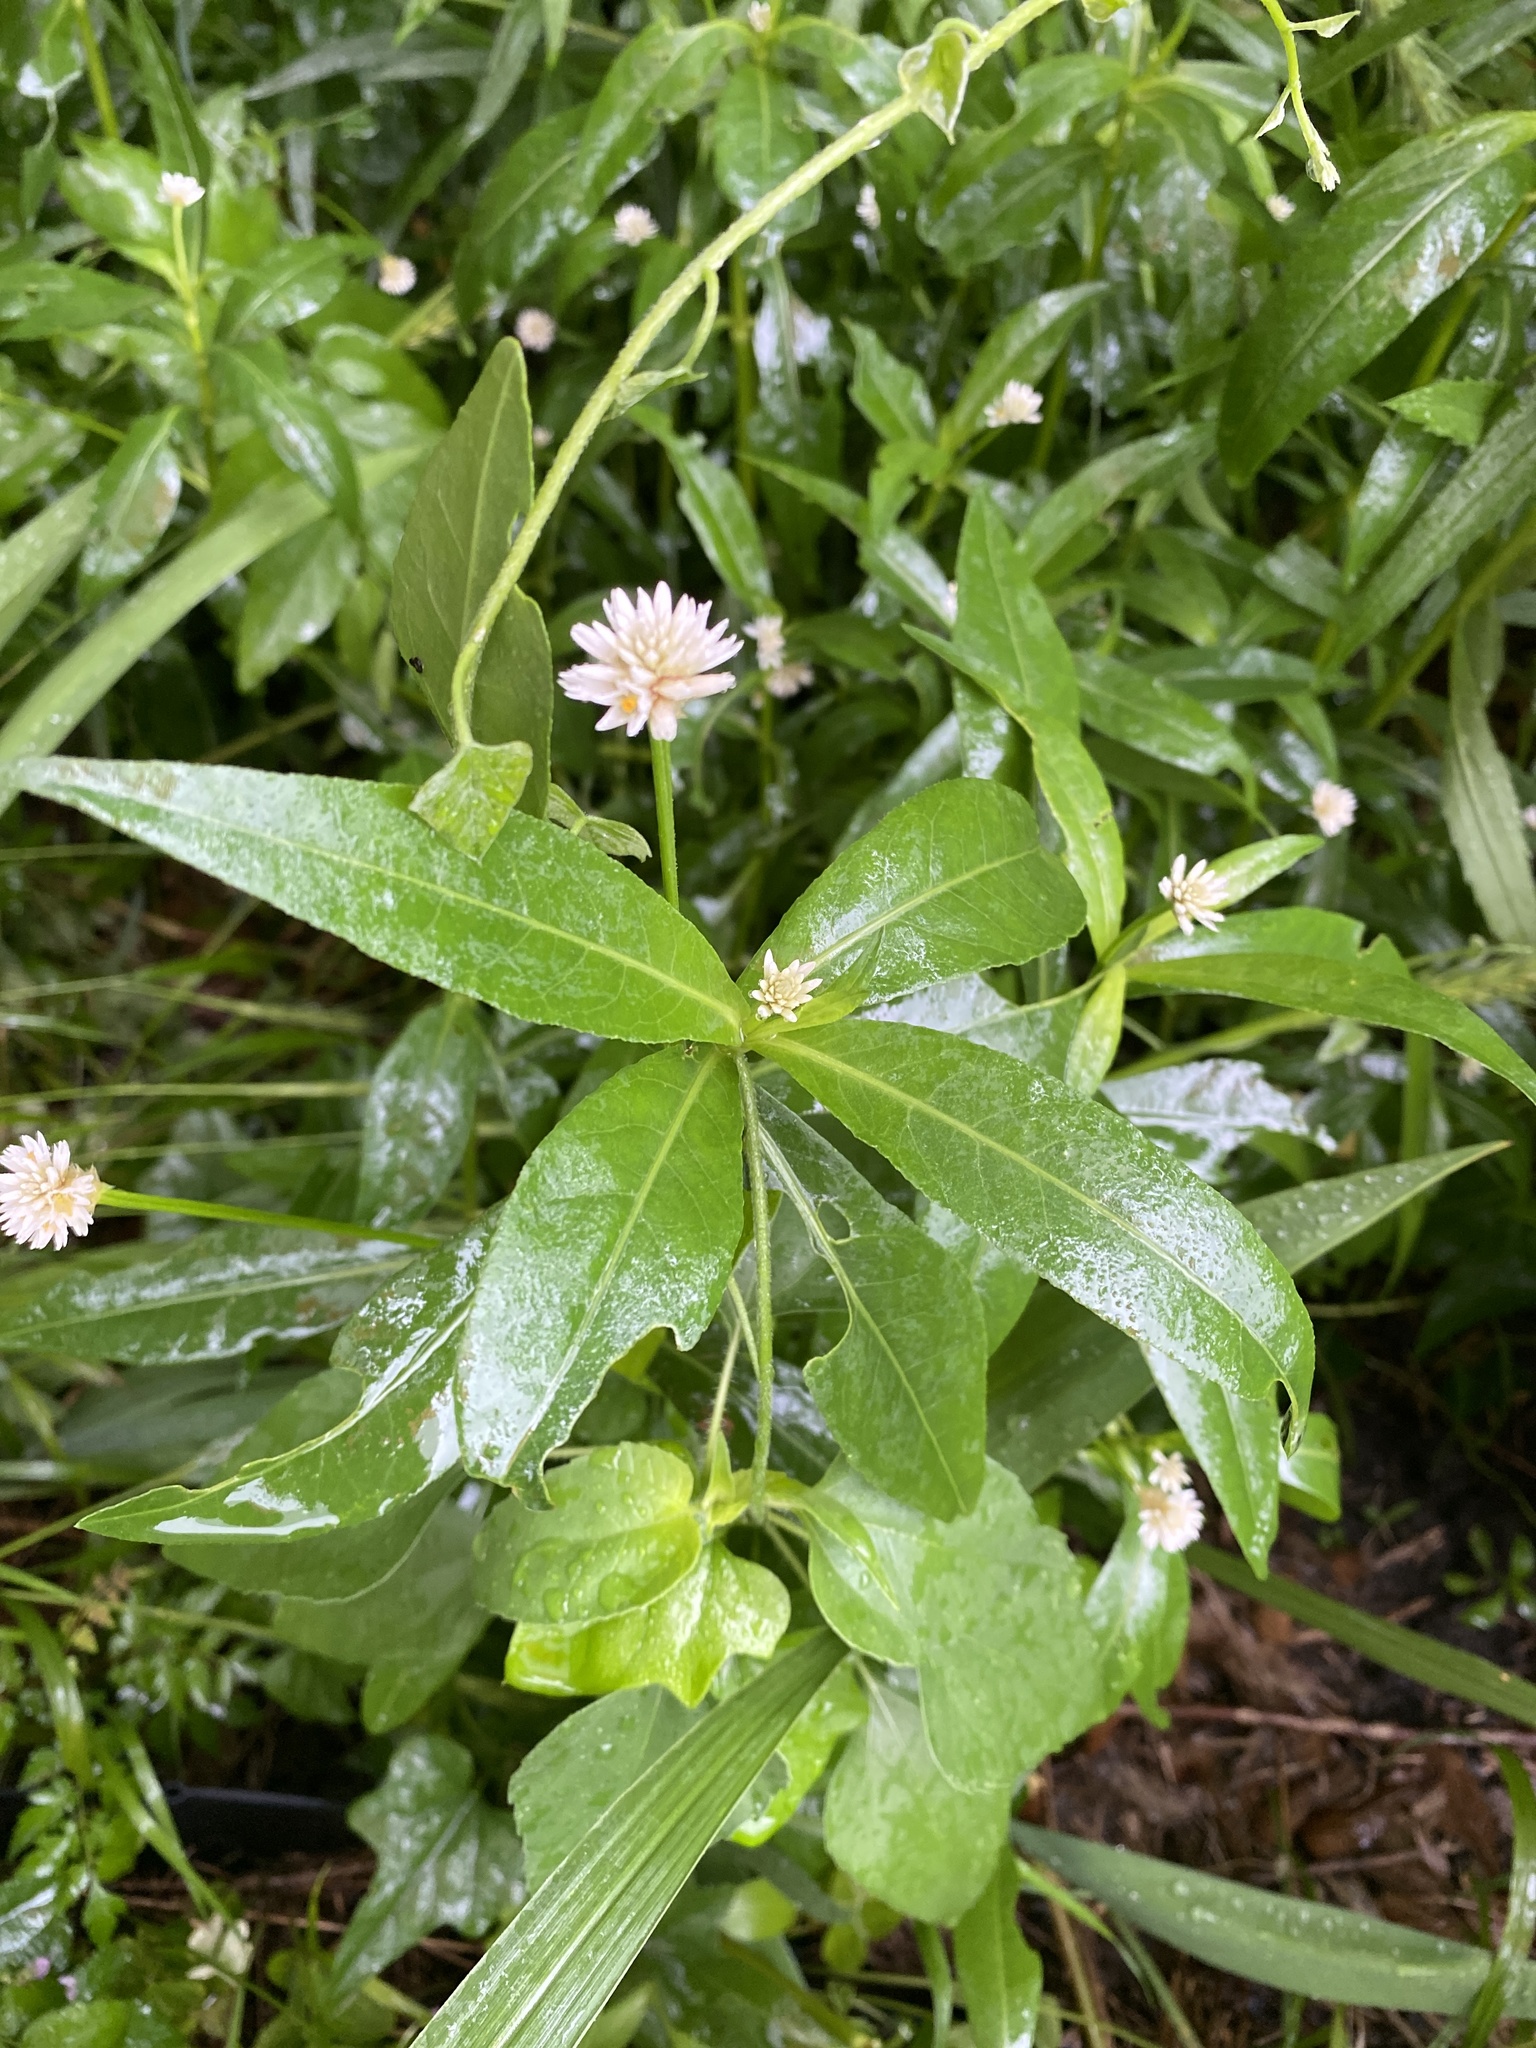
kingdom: Plantae
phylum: Tracheophyta
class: Magnoliopsida
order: Caryophyllales
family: Amaranthaceae
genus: Alternanthera
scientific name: Alternanthera philoxeroides
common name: Alligatorweed
